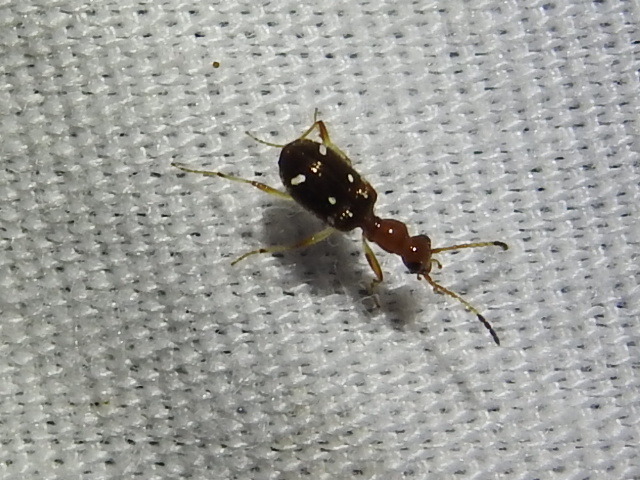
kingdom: Animalia
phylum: Arthropoda
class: Insecta
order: Coleoptera
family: Carabidae
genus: Ega
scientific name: Ega sallei
